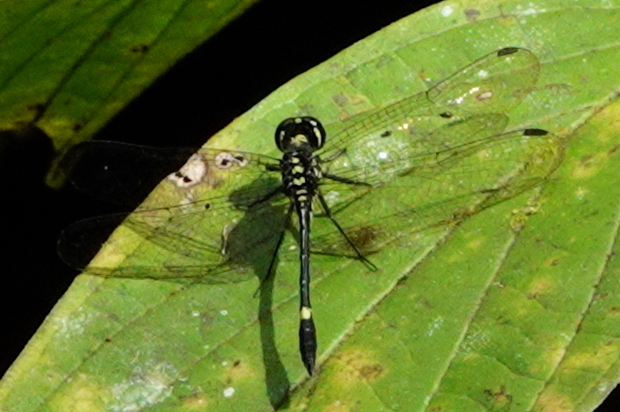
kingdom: Animalia
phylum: Arthropoda
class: Insecta
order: Odonata
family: Libellulidae
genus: Diplacina
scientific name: Diplacina phoebe
